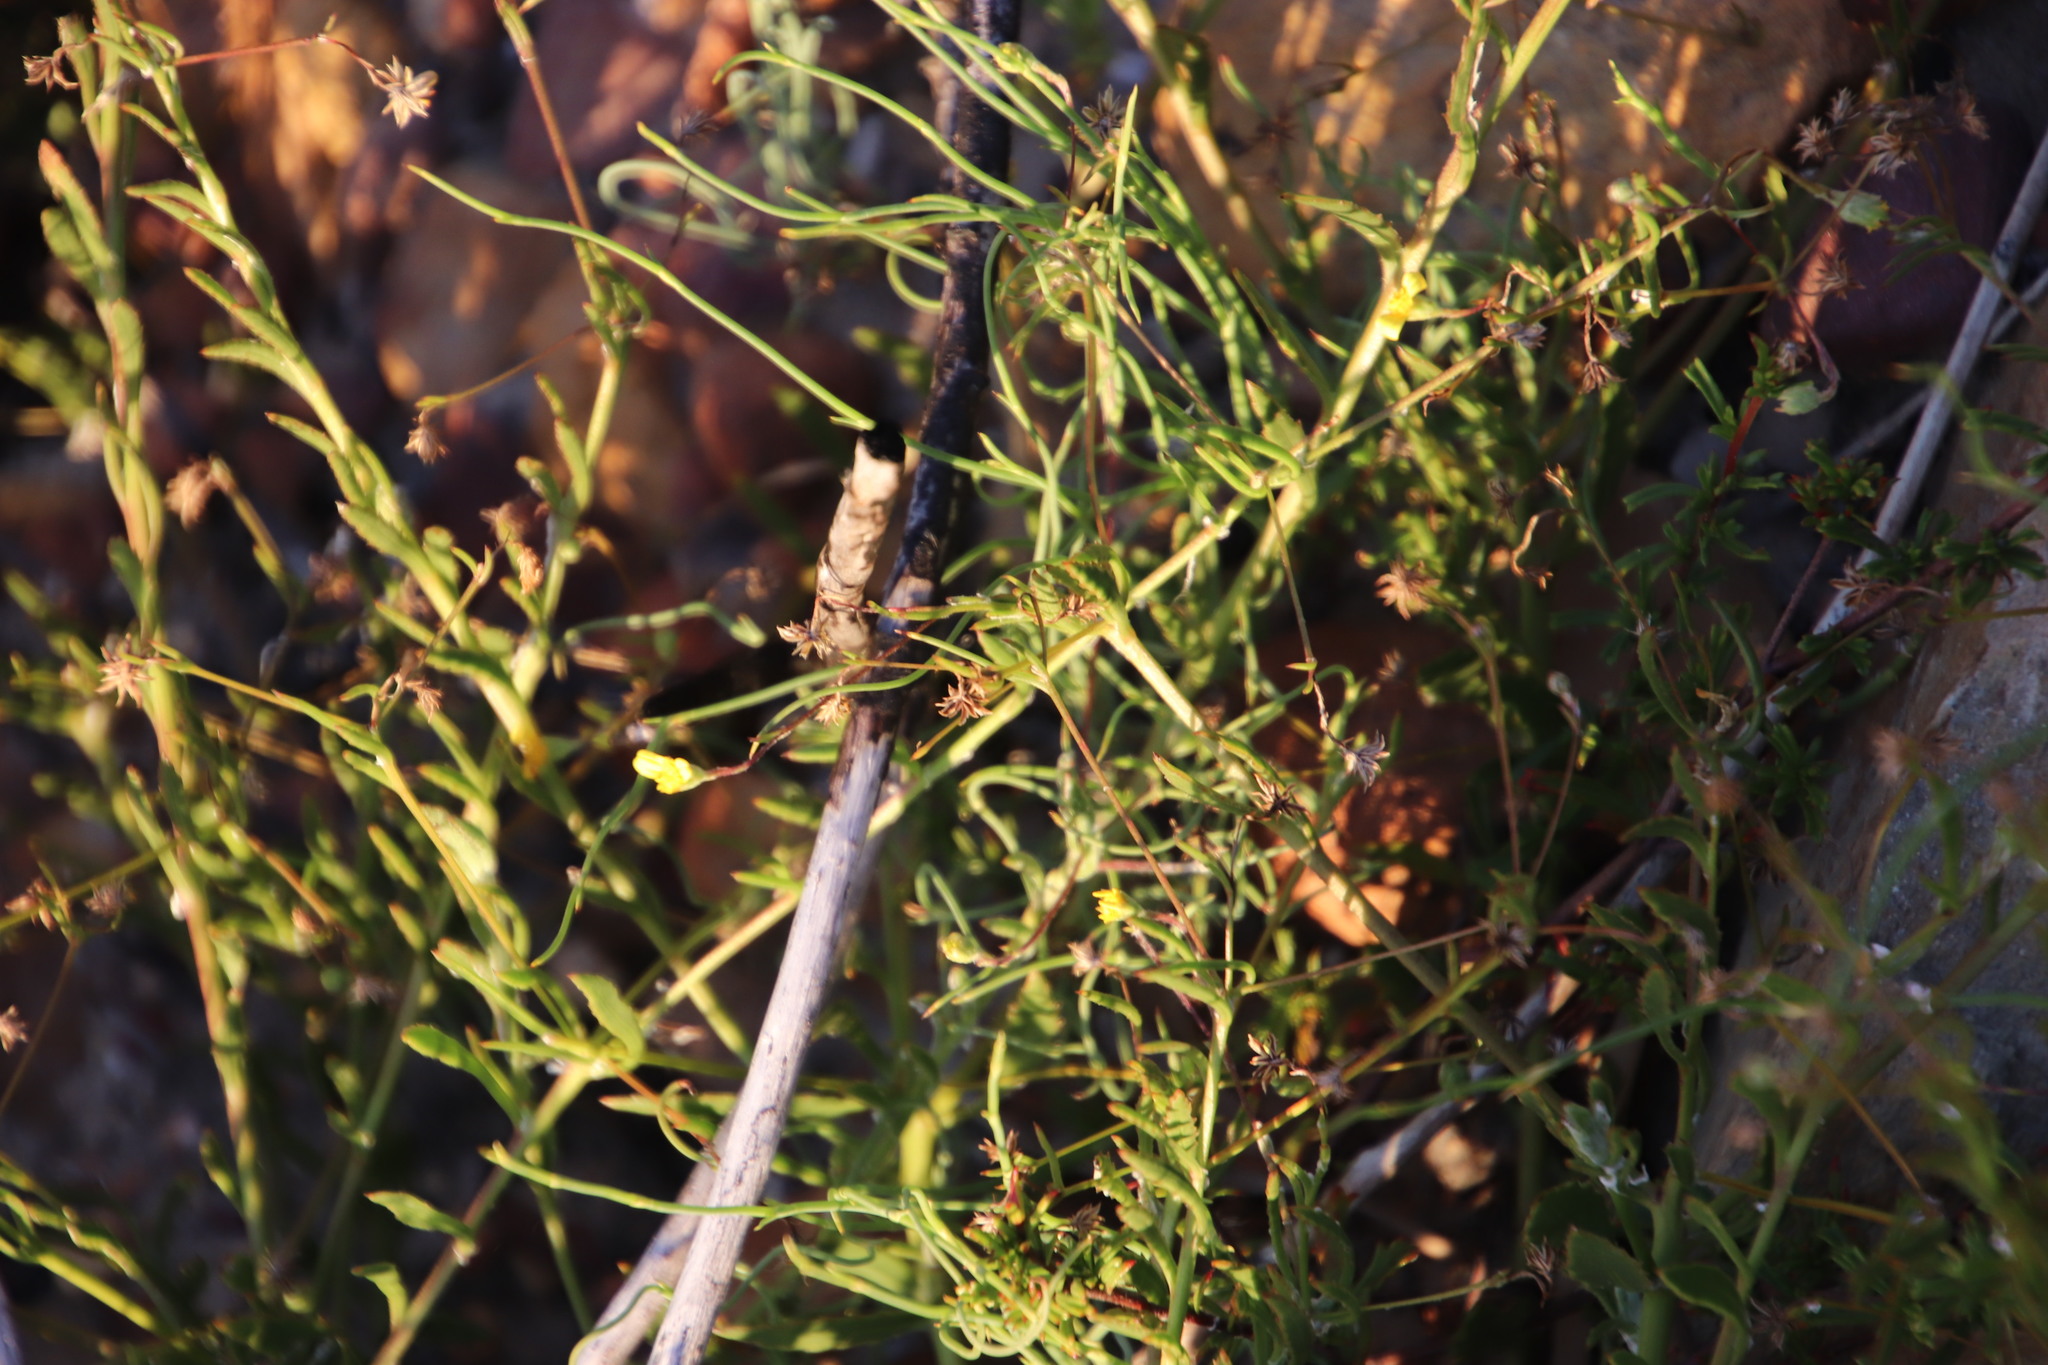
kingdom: Plantae
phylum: Tracheophyta
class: Magnoliopsida
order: Asterales
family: Asteraceae
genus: Osteospermum
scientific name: Osteospermum ciliatum
